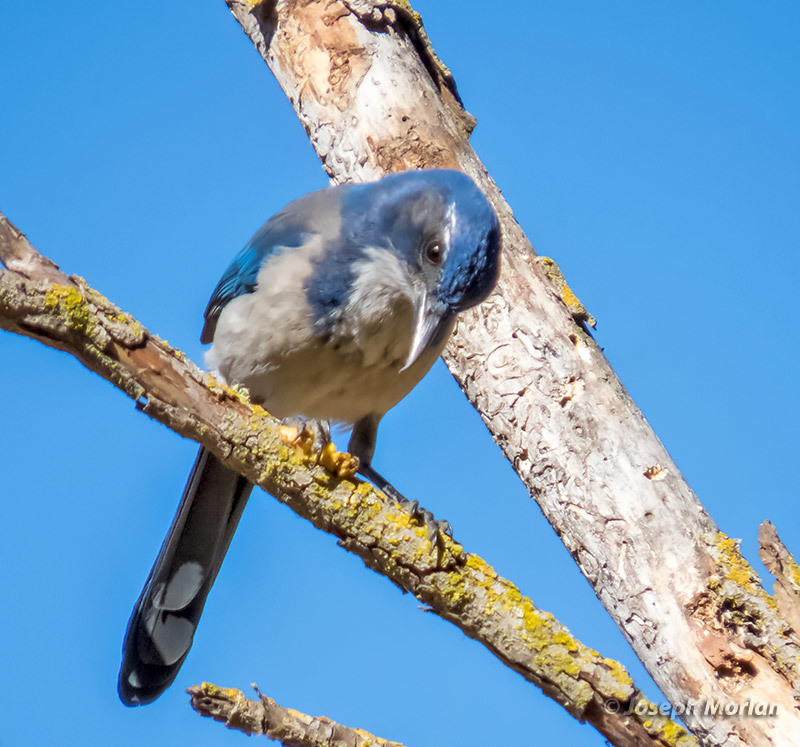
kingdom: Animalia
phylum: Chordata
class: Aves
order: Passeriformes
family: Corvidae
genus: Aphelocoma
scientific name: Aphelocoma californica
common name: California scrub-jay
